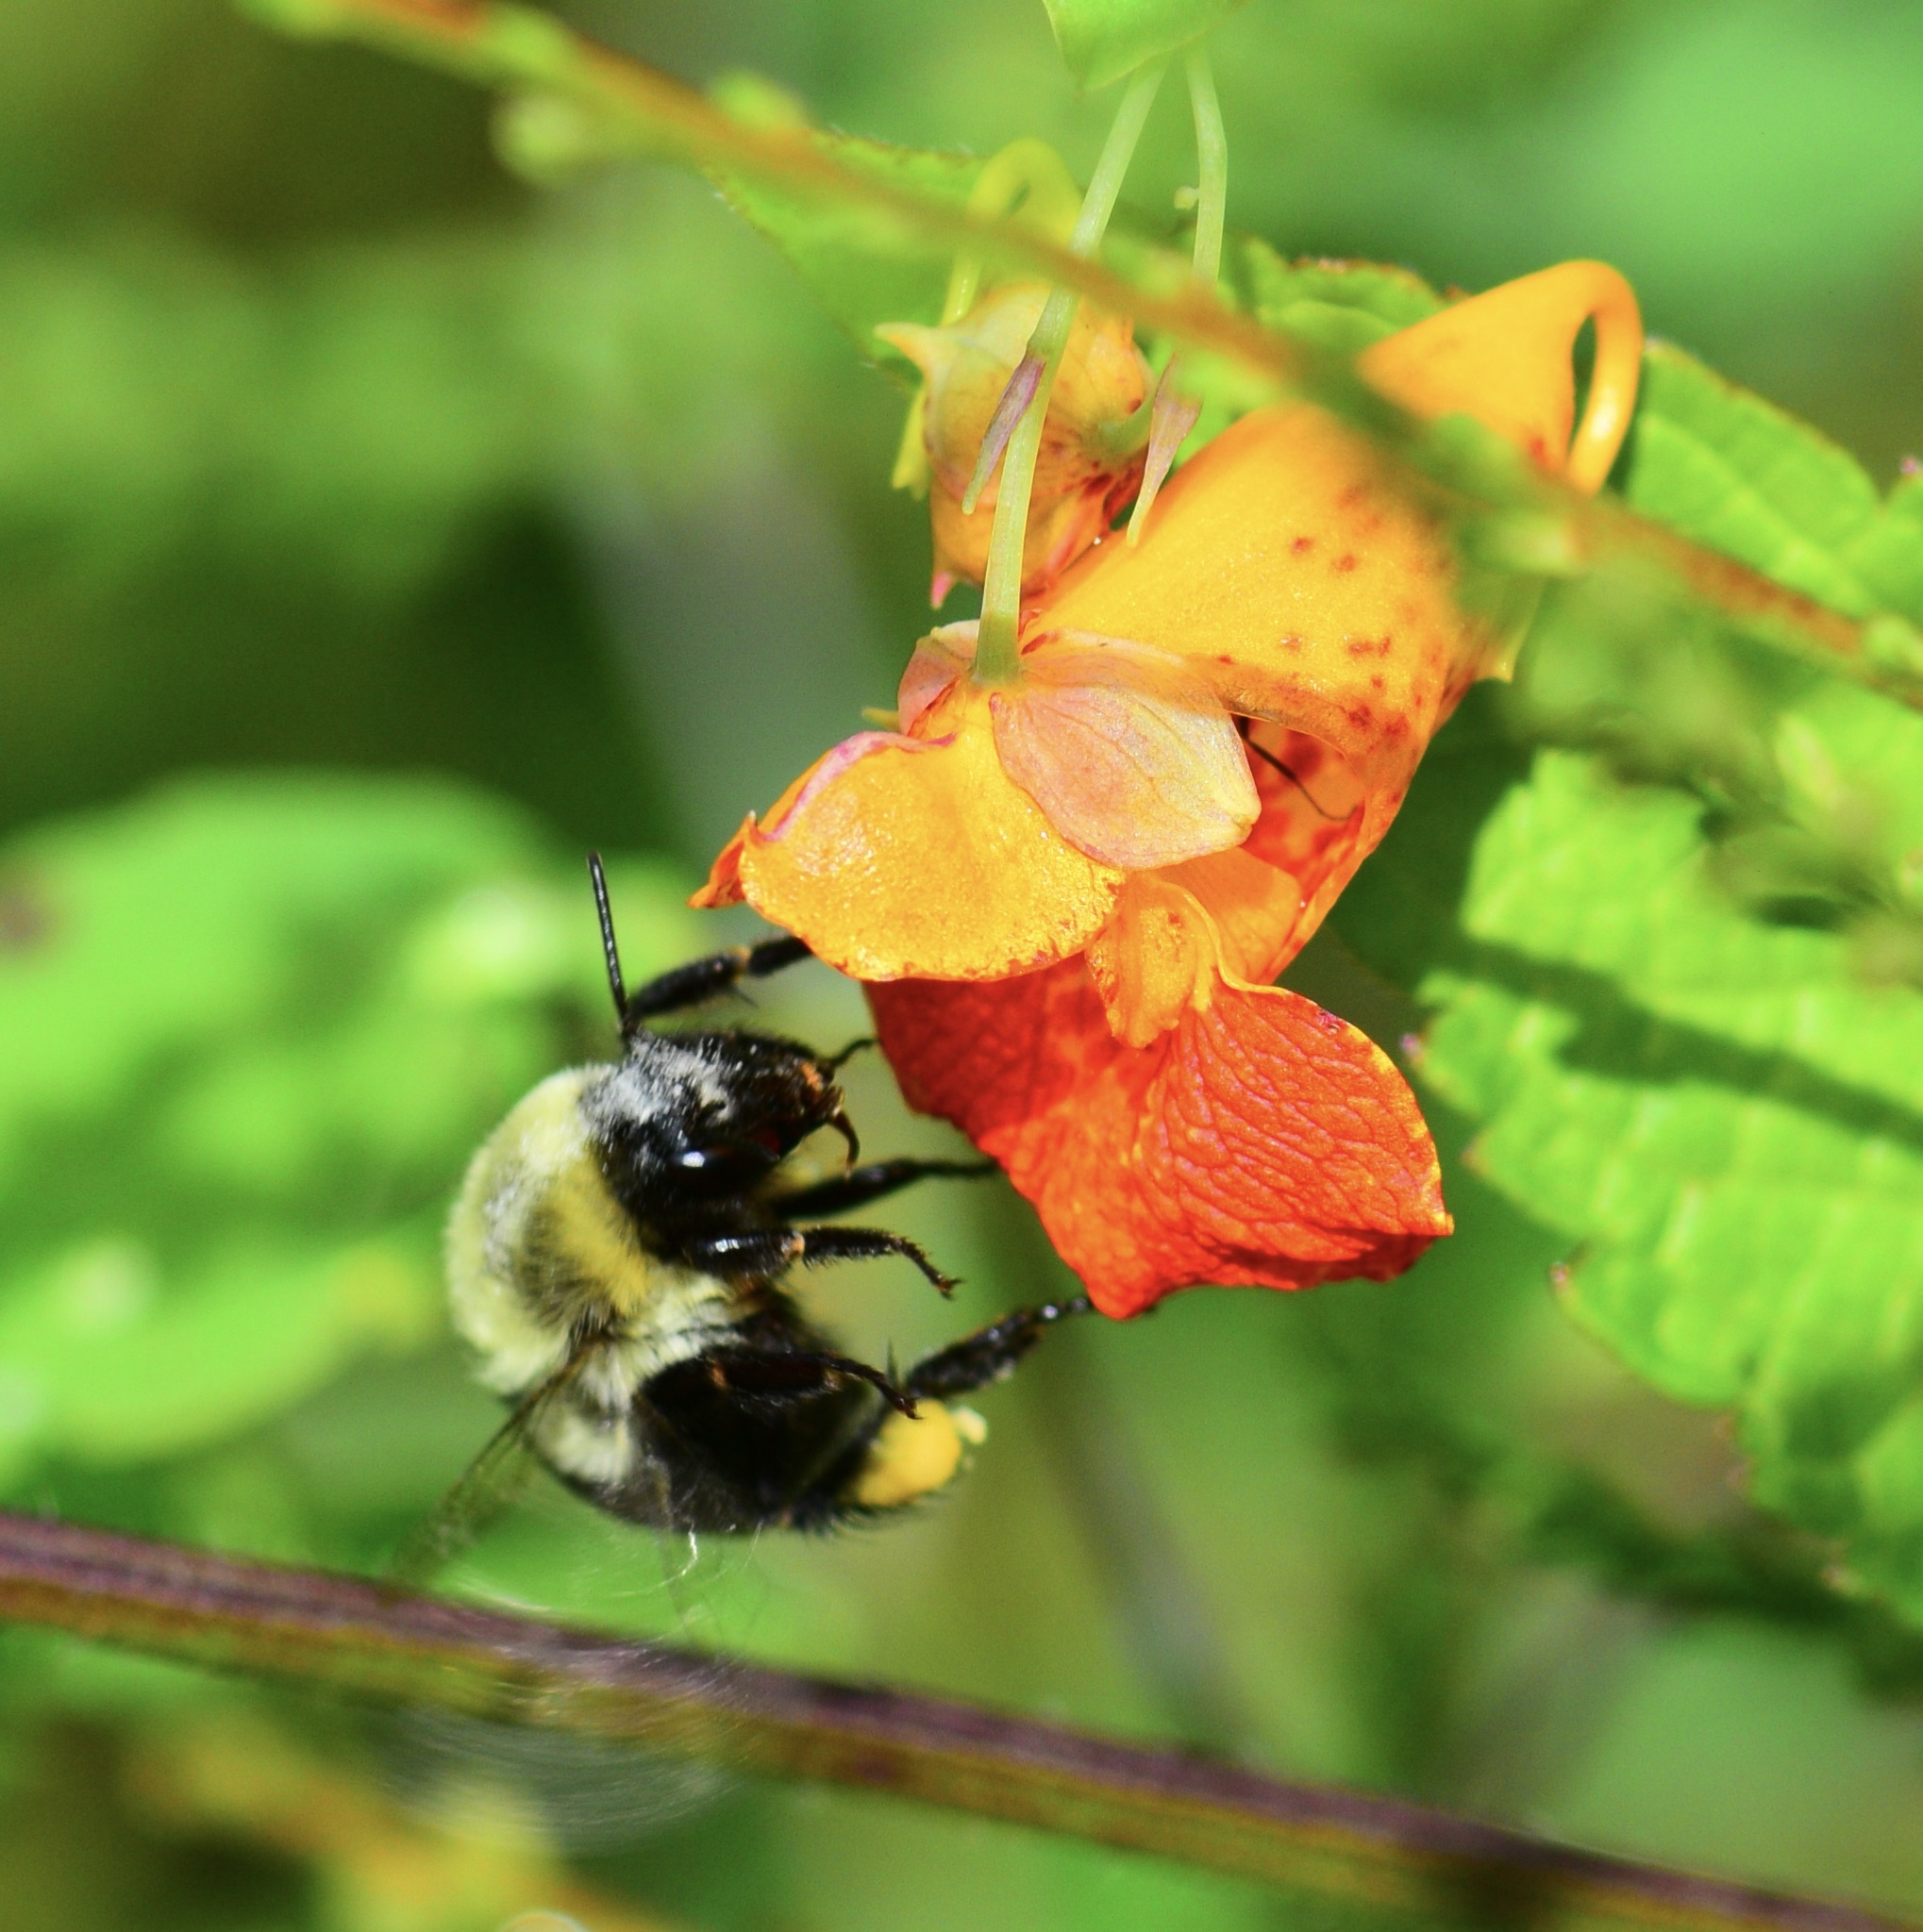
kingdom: Animalia
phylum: Arthropoda
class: Insecta
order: Hymenoptera
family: Apidae
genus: Bombus
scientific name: Bombus impatiens
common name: Common eastern bumble bee
